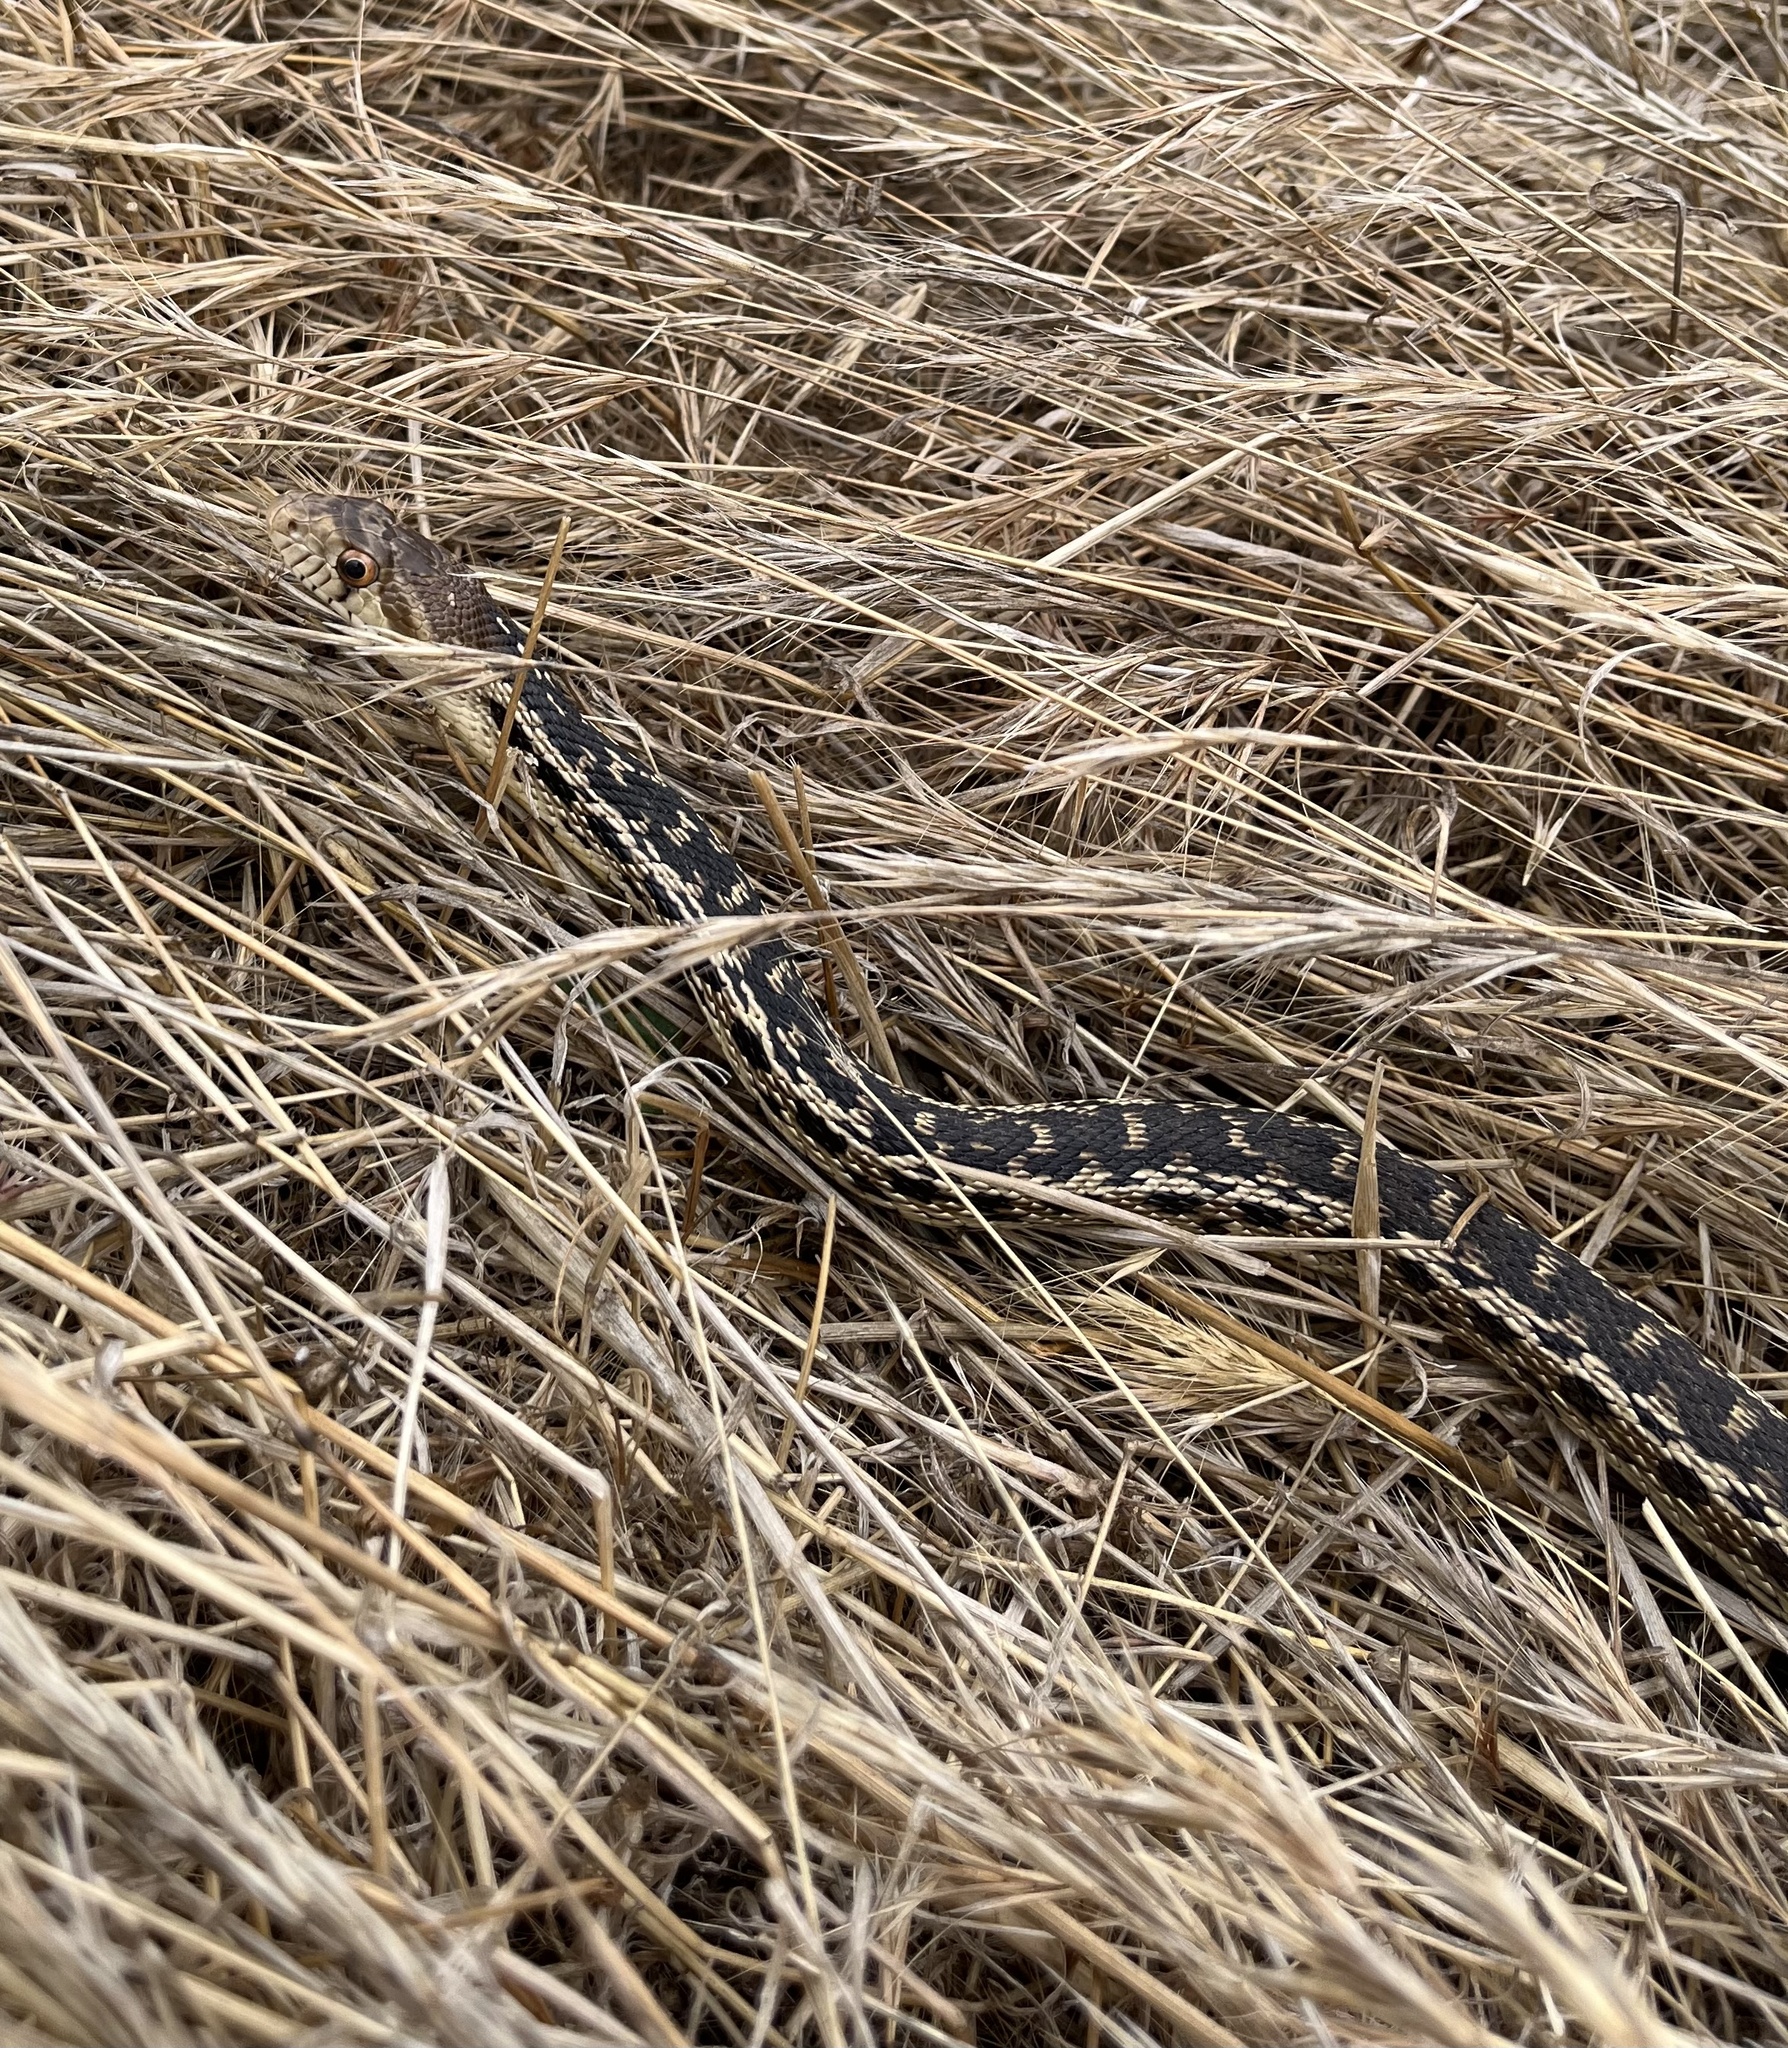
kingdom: Animalia
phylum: Chordata
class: Squamata
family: Colubridae
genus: Pituophis
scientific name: Pituophis catenifer
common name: Gopher snake
